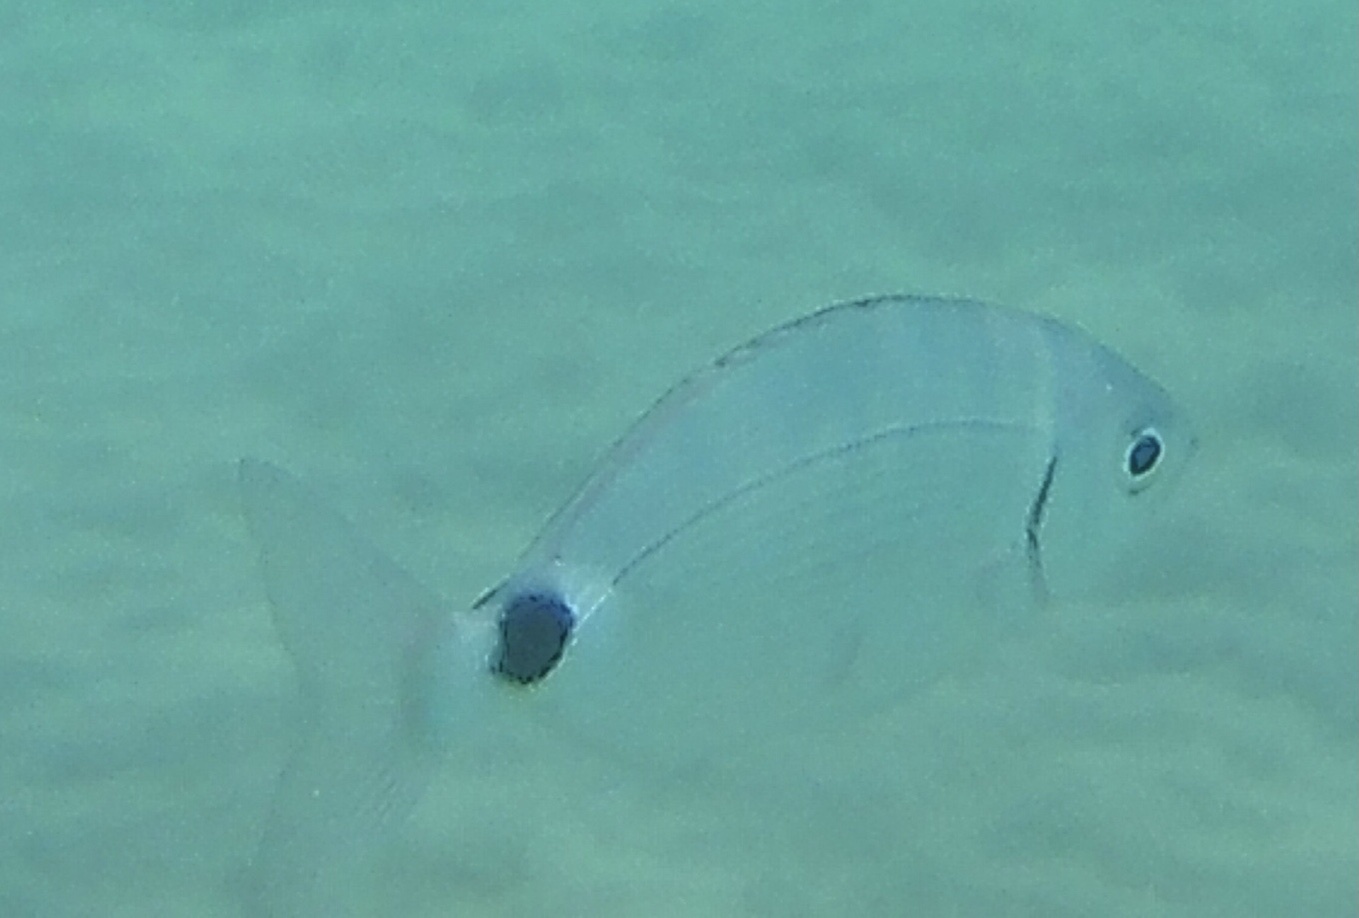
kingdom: Animalia
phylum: Chordata
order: Perciformes
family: Sparidae
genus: Oblada
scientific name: Oblada melanura
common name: Saddled seabream
